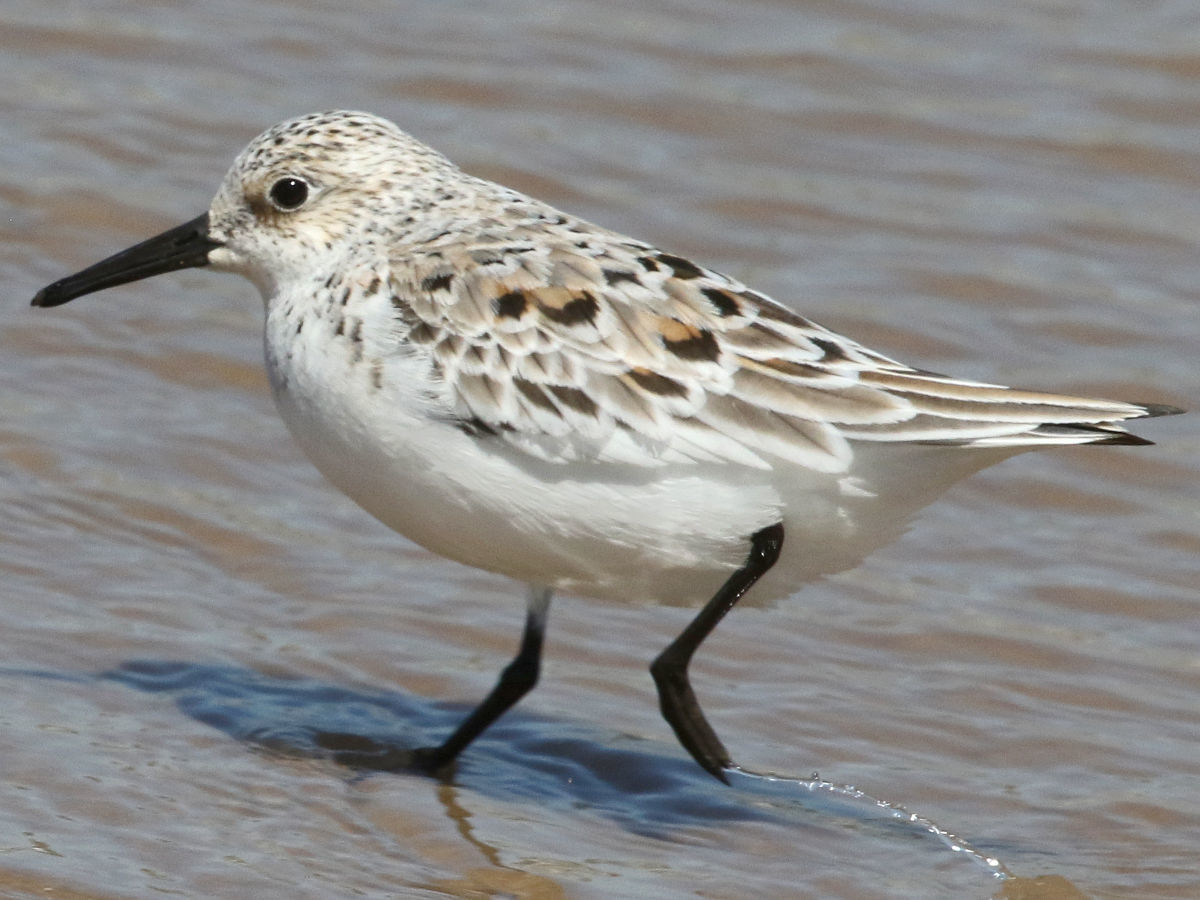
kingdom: Animalia
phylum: Chordata
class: Aves
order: Charadriiformes
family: Scolopacidae
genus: Calidris
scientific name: Calidris alba
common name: Sanderling
